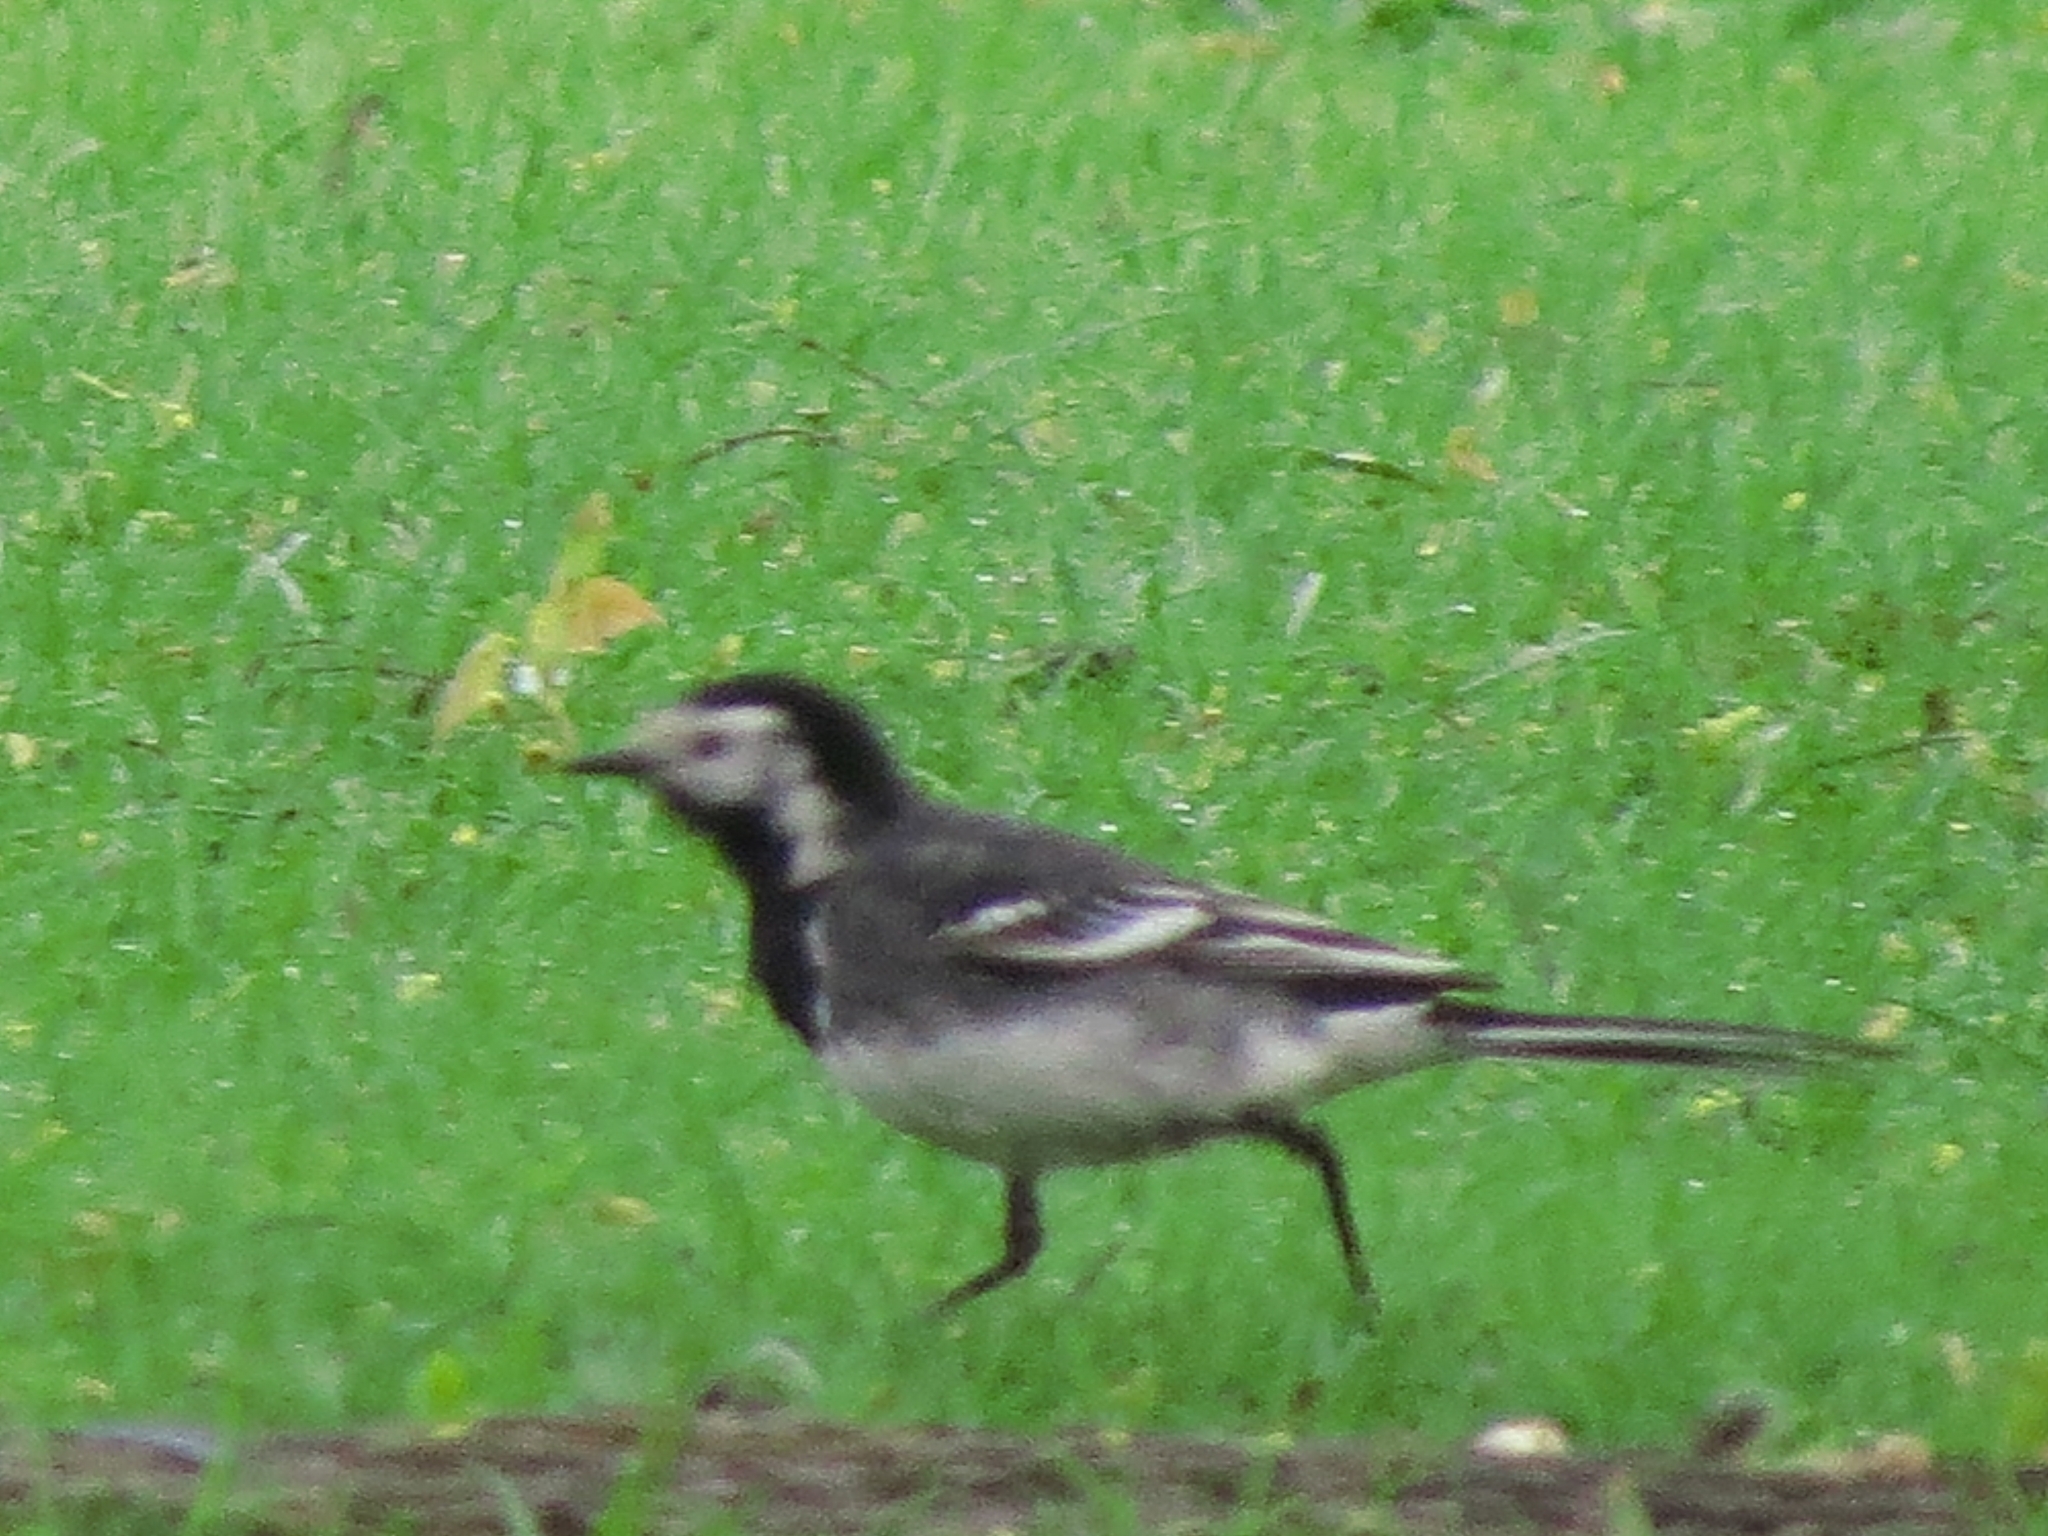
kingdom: Animalia
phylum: Chordata
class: Aves
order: Passeriformes
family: Motacillidae
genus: Motacilla
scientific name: Motacilla alba
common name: White wagtail
